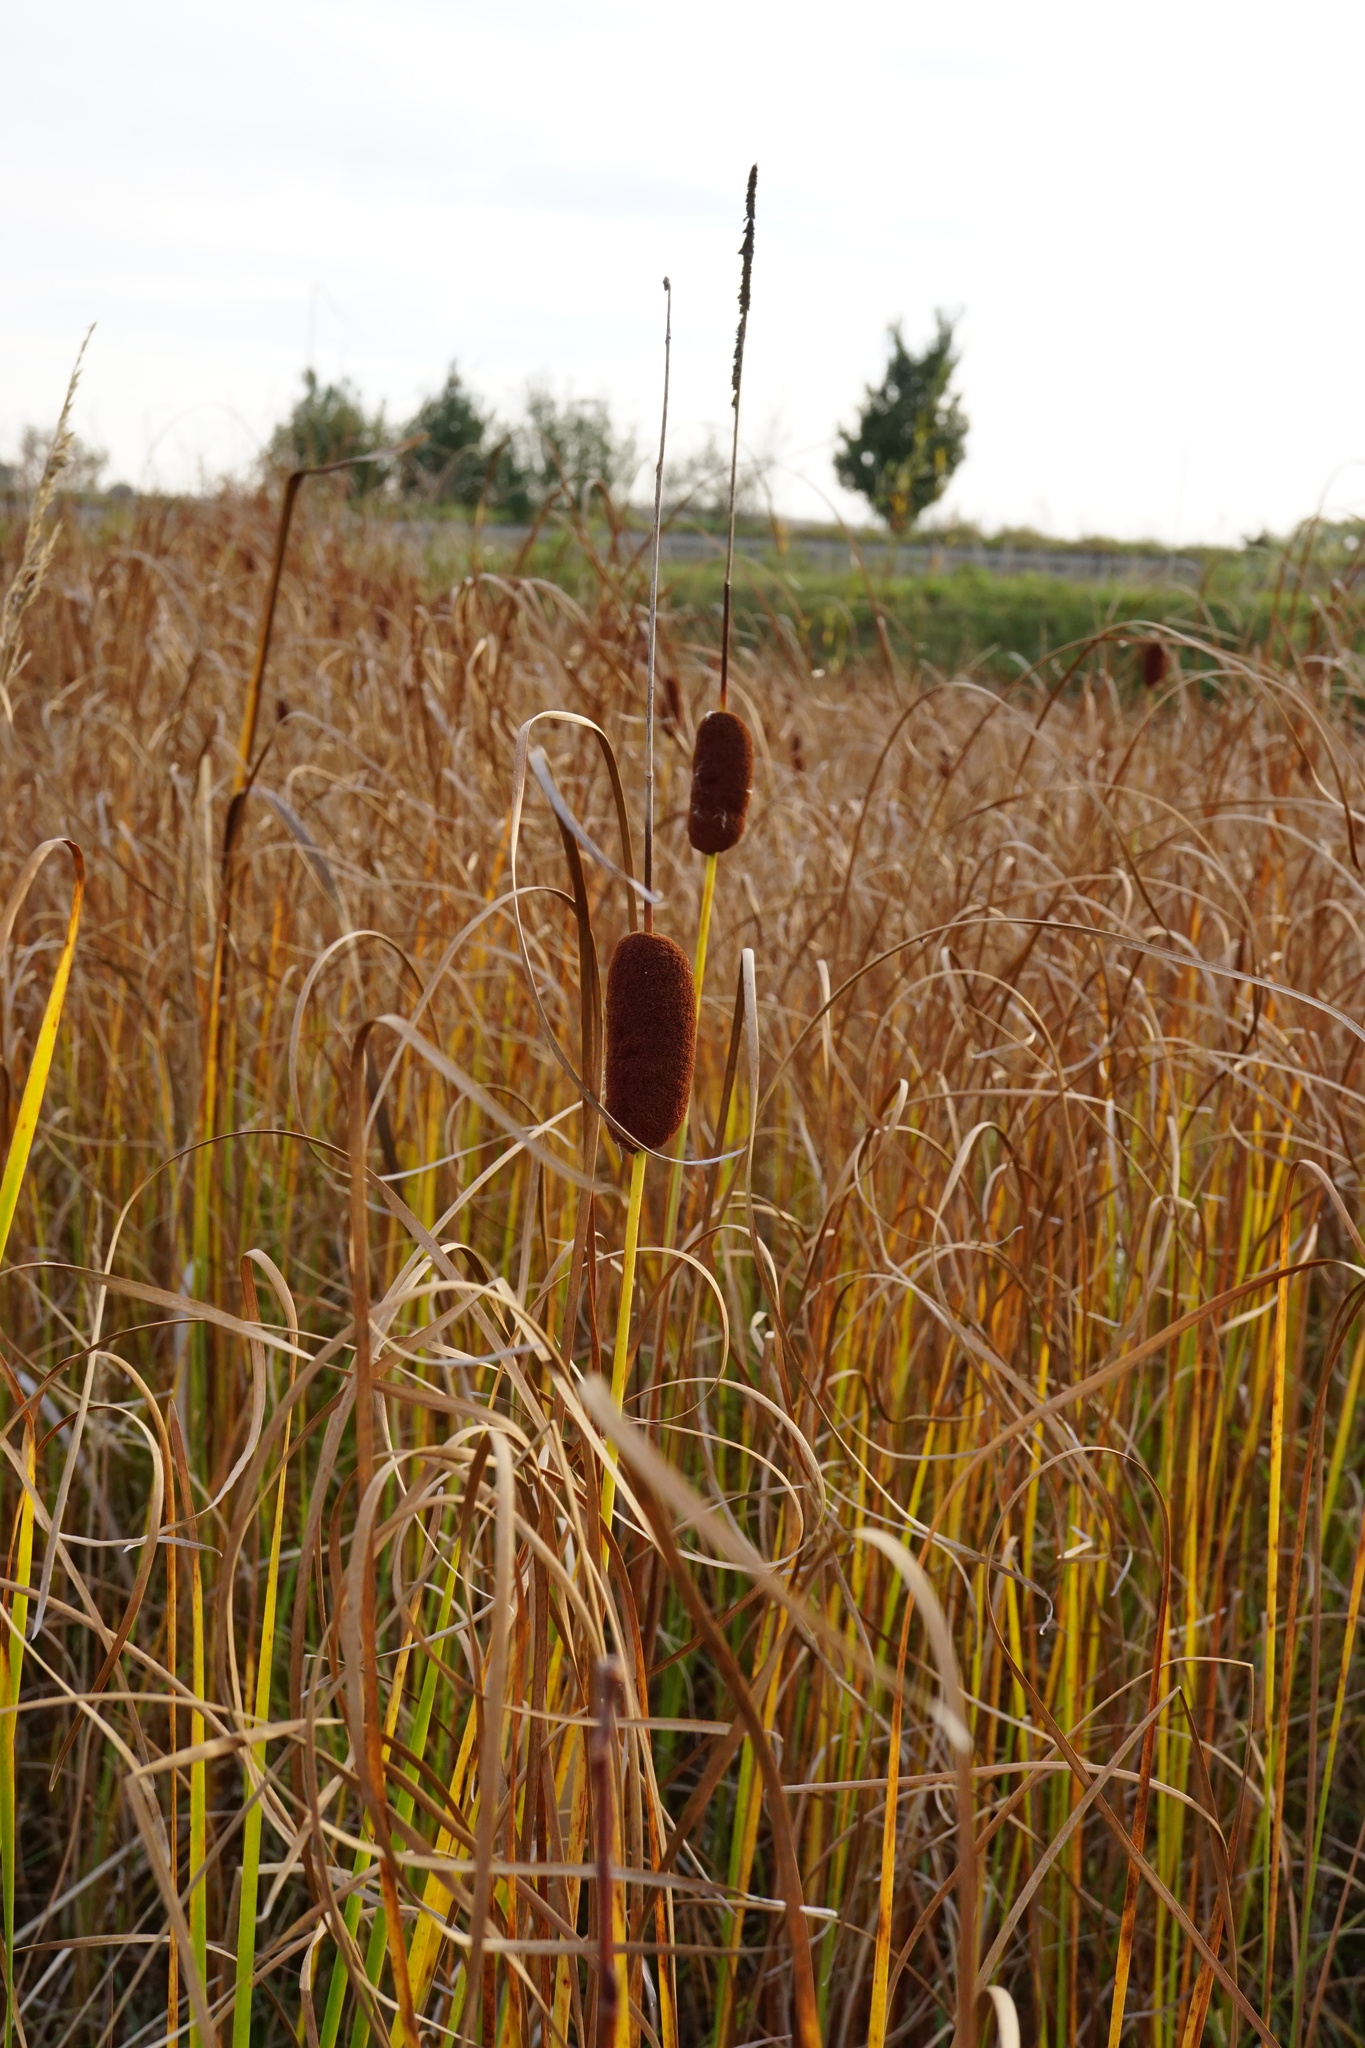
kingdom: Plantae
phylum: Tracheophyta
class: Liliopsida
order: Poales
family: Typhaceae
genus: Typha
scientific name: Typha laxmannii
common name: Laxman’s bulrush
